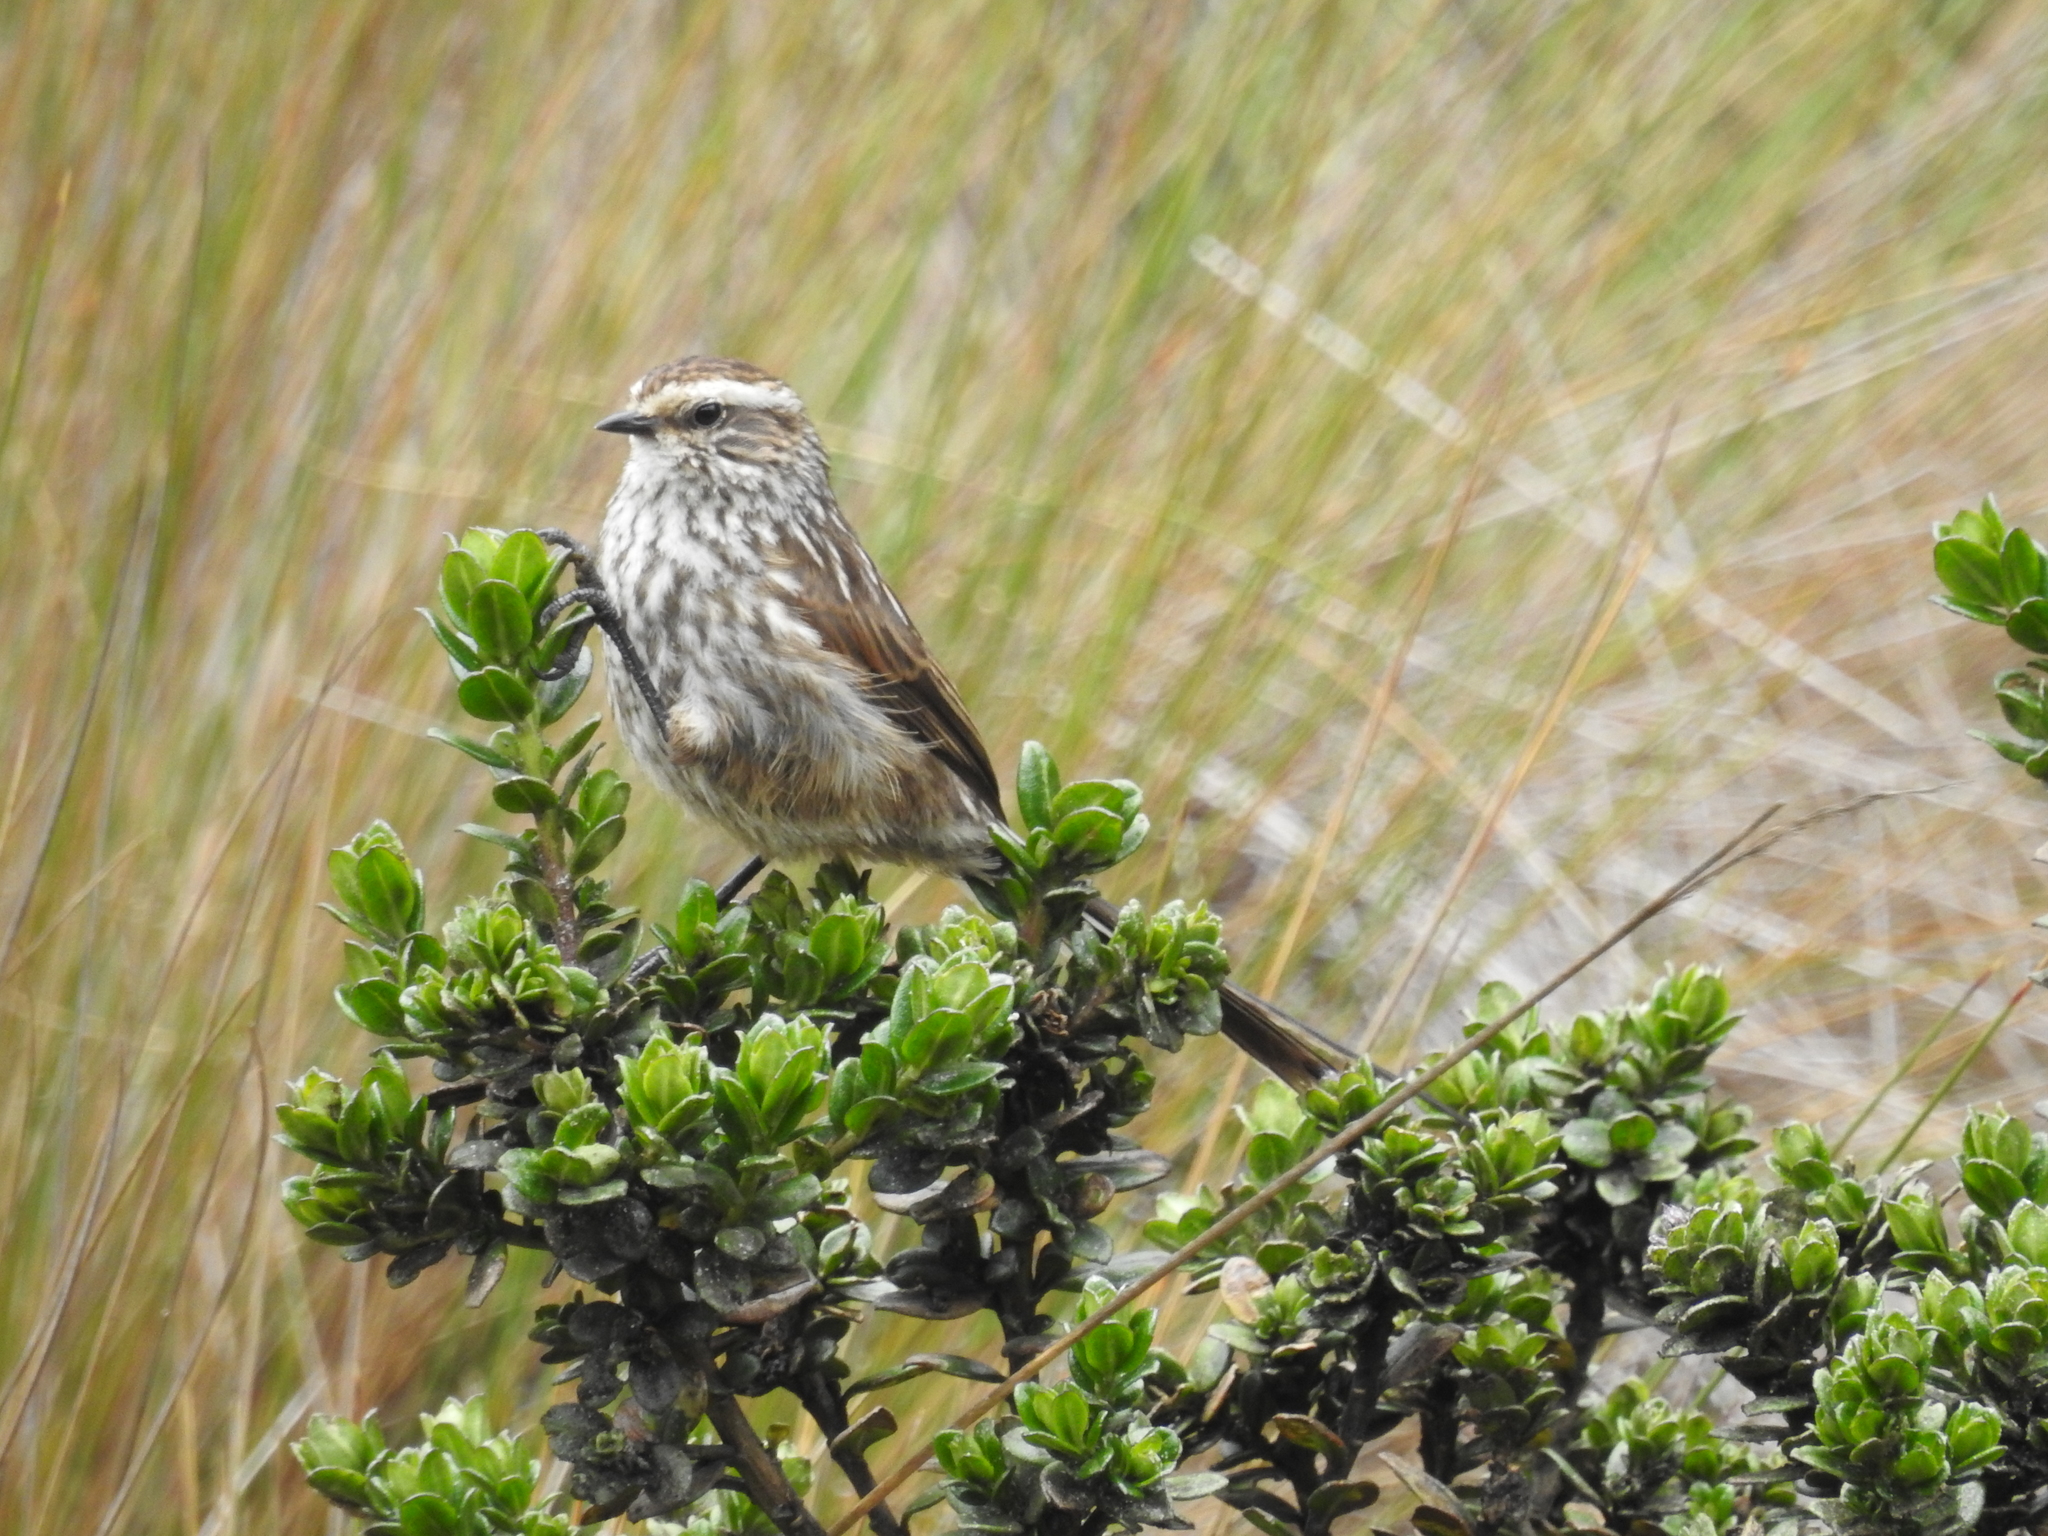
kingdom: Animalia
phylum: Chordata
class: Aves
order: Passeriformes
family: Furnariidae
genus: Leptasthenura
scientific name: Leptasthenura andicola
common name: Andean tit-spinetail
